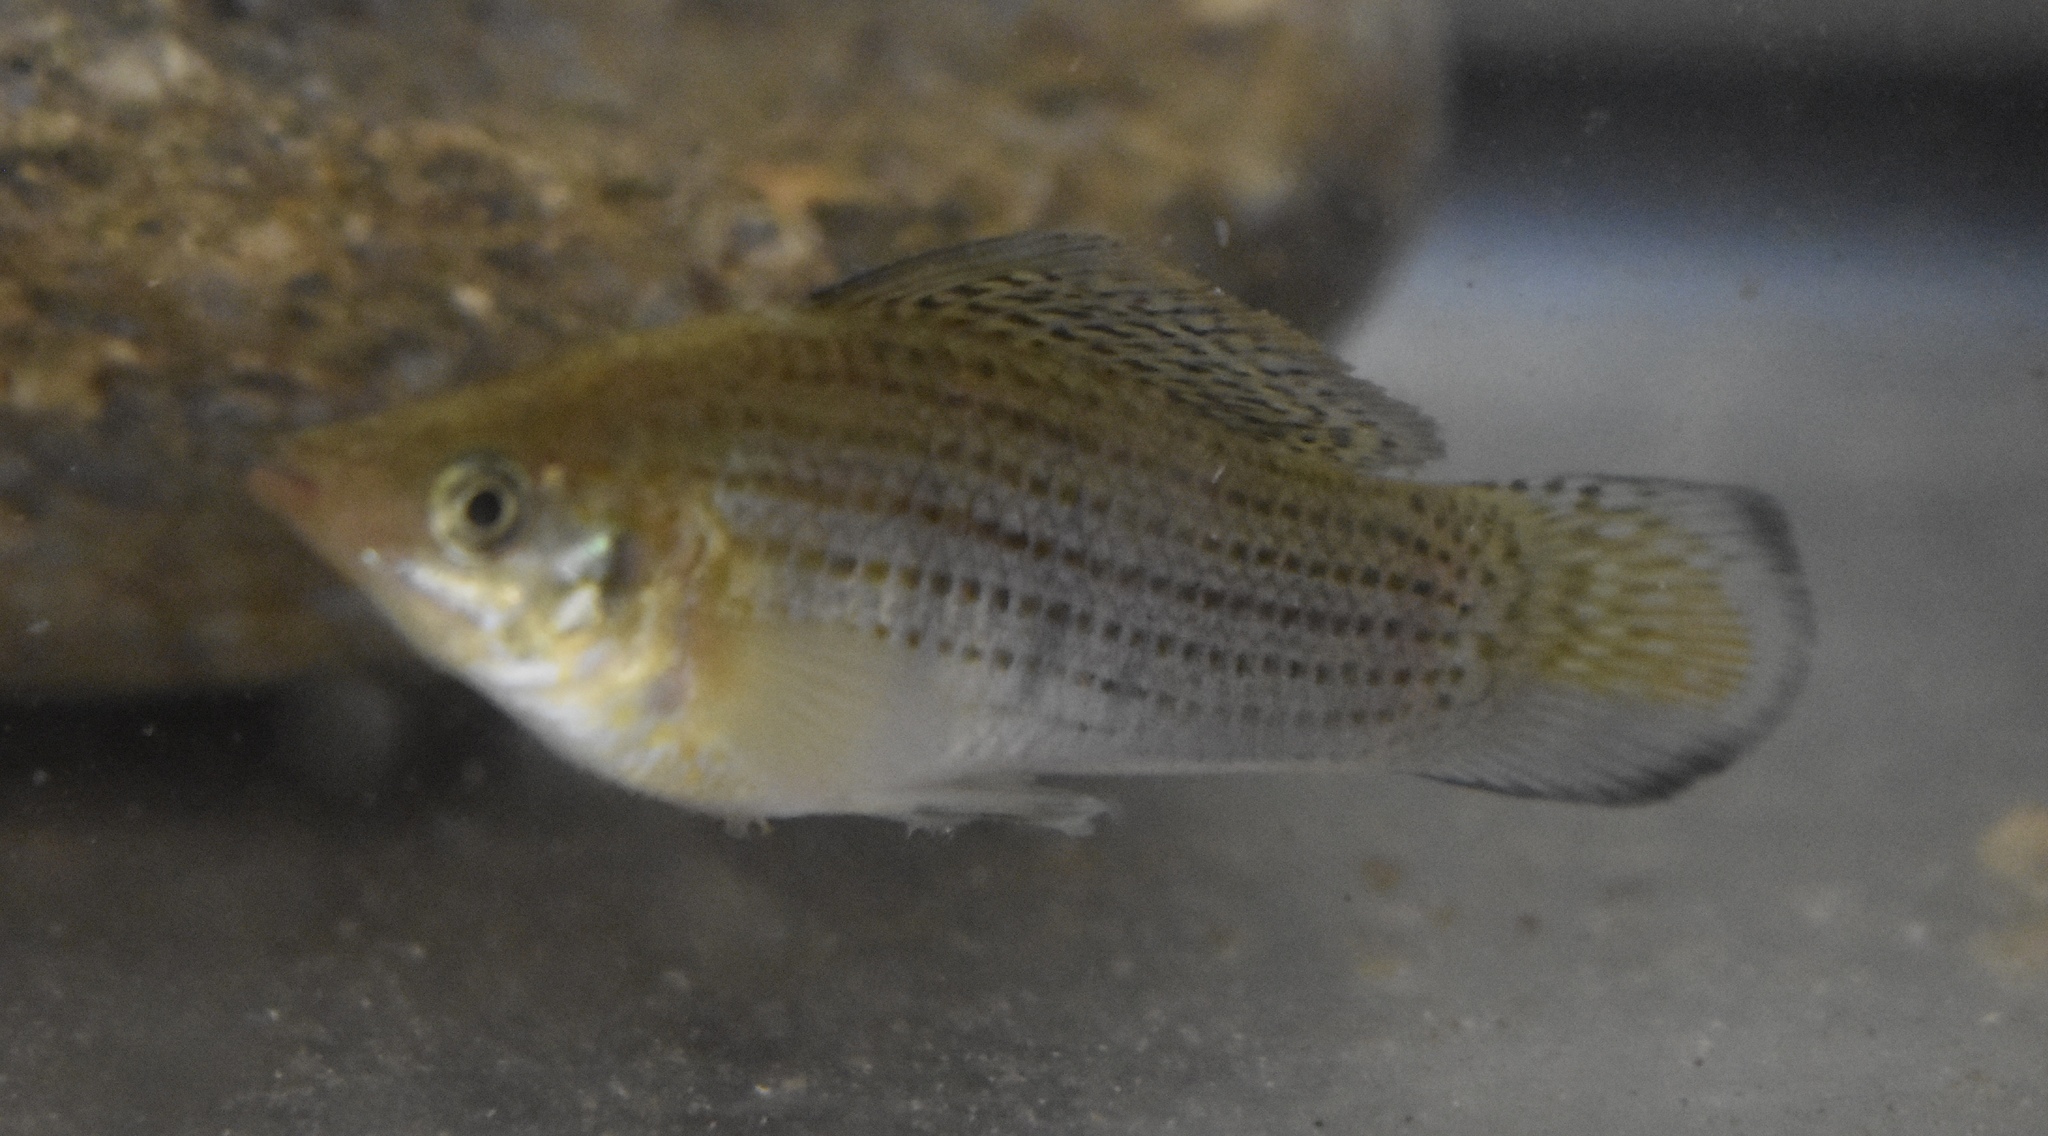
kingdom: Animalia
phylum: Chordata
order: Cyprinodontiformes
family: Poeciliidae
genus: Poecilia
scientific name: Poecilia latipinna
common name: Sailfin molly
